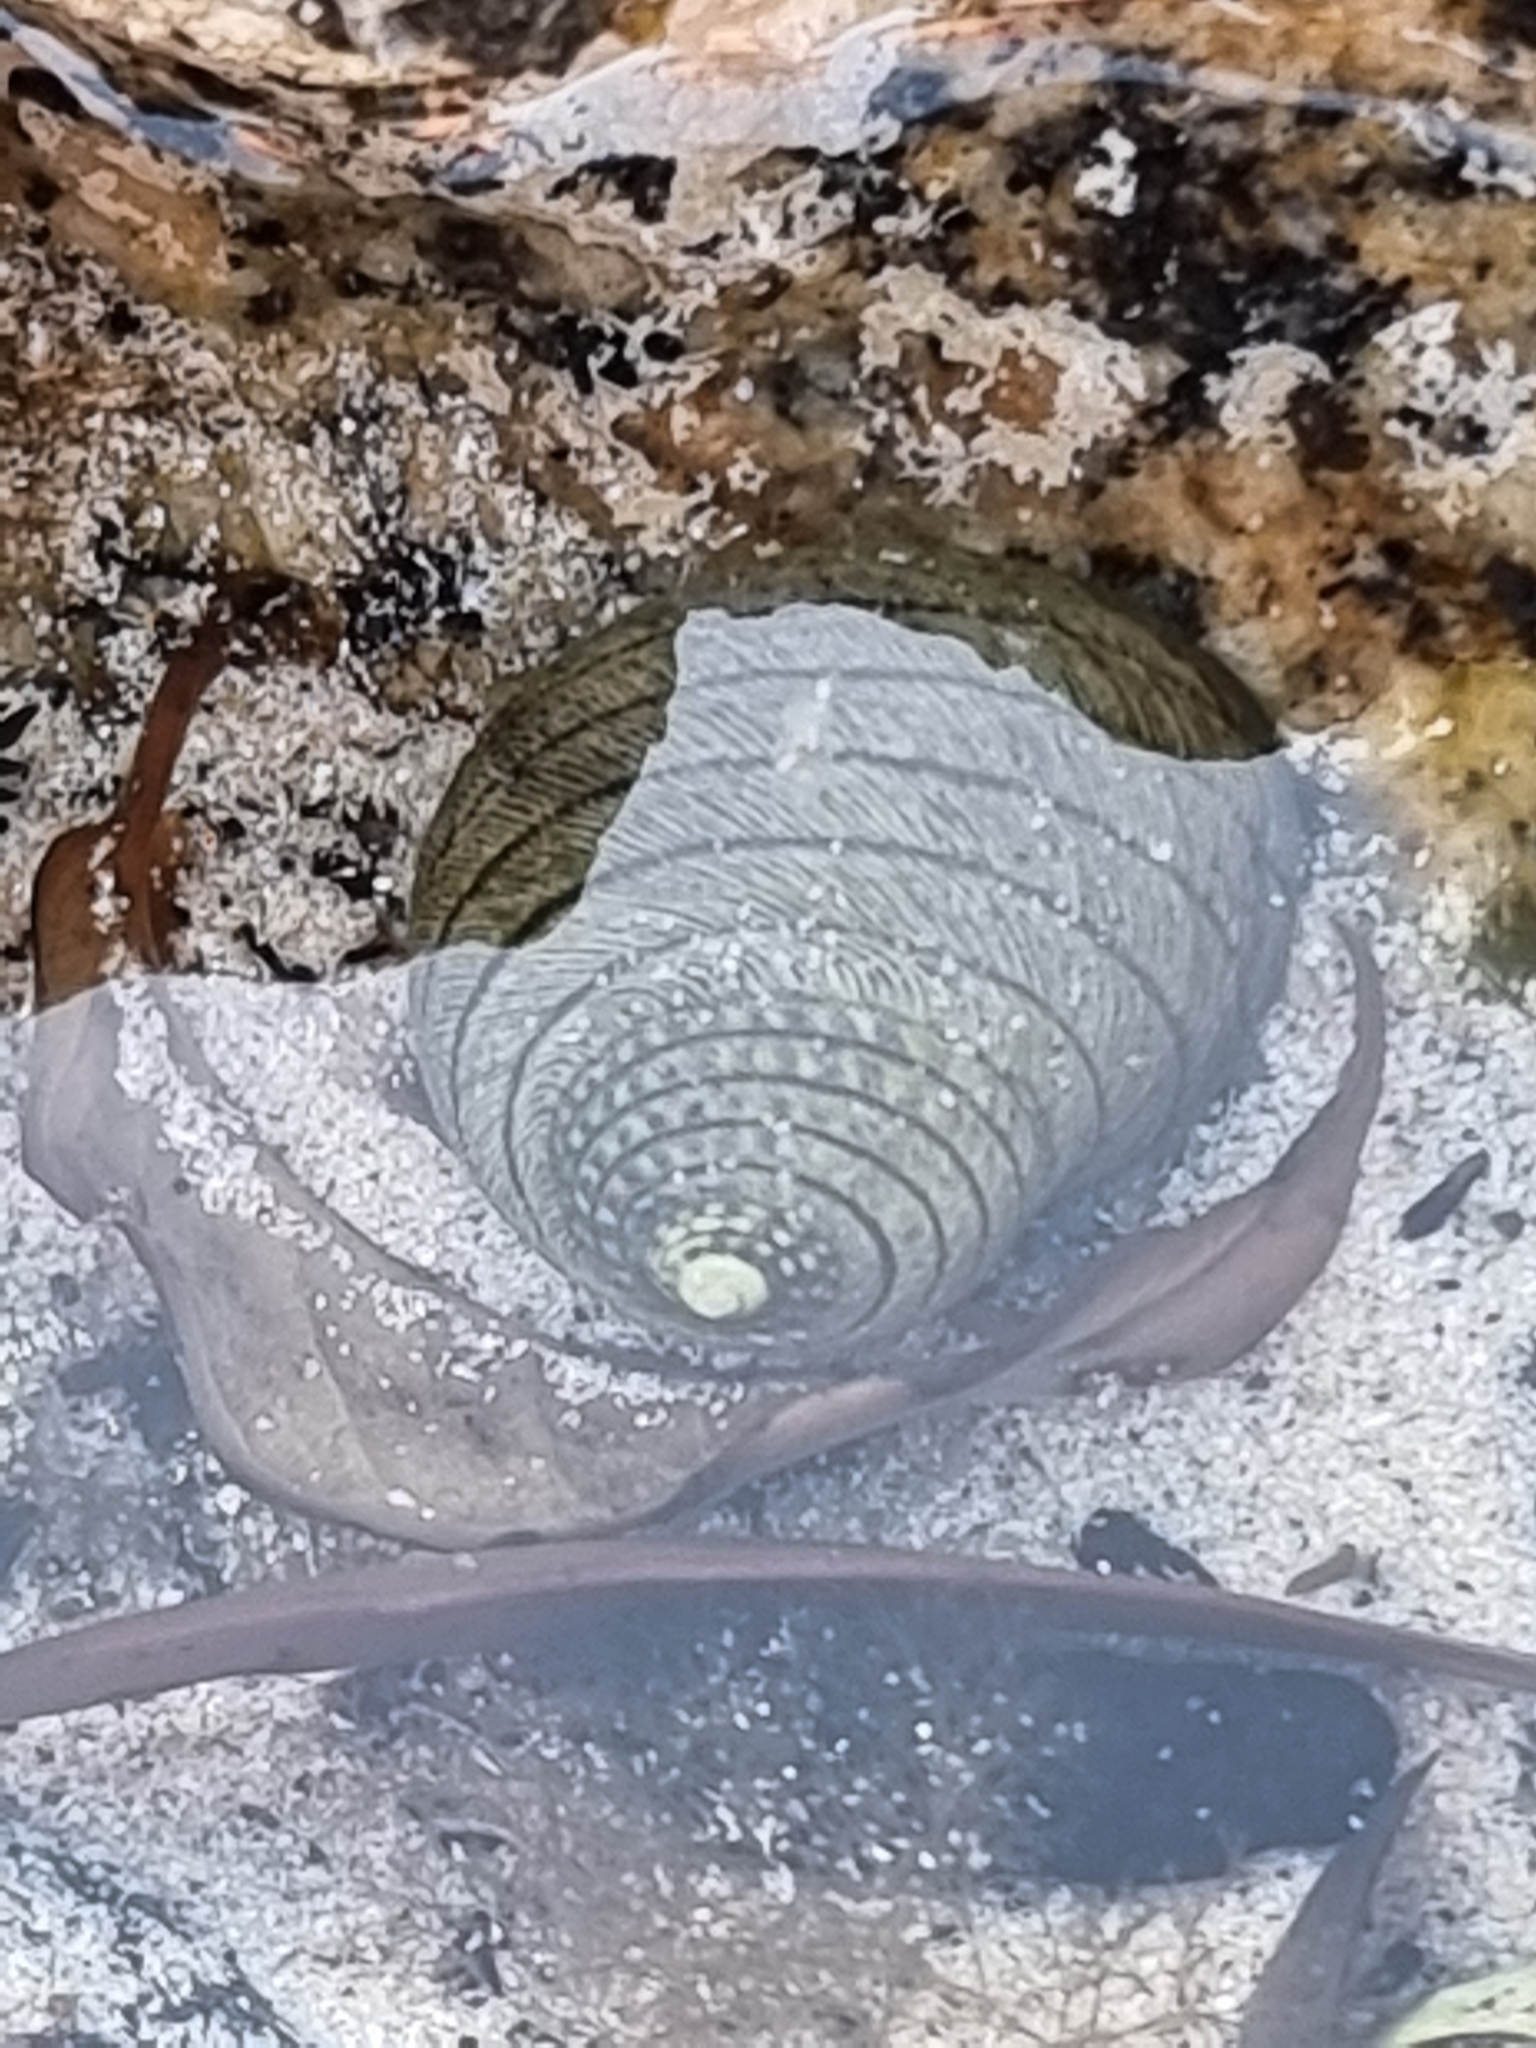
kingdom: Animalia
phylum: Mollusca
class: Gastropoda
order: Trochida
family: Trochidae
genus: Diloma
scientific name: Diloma aethiops
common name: Scorched monodont
